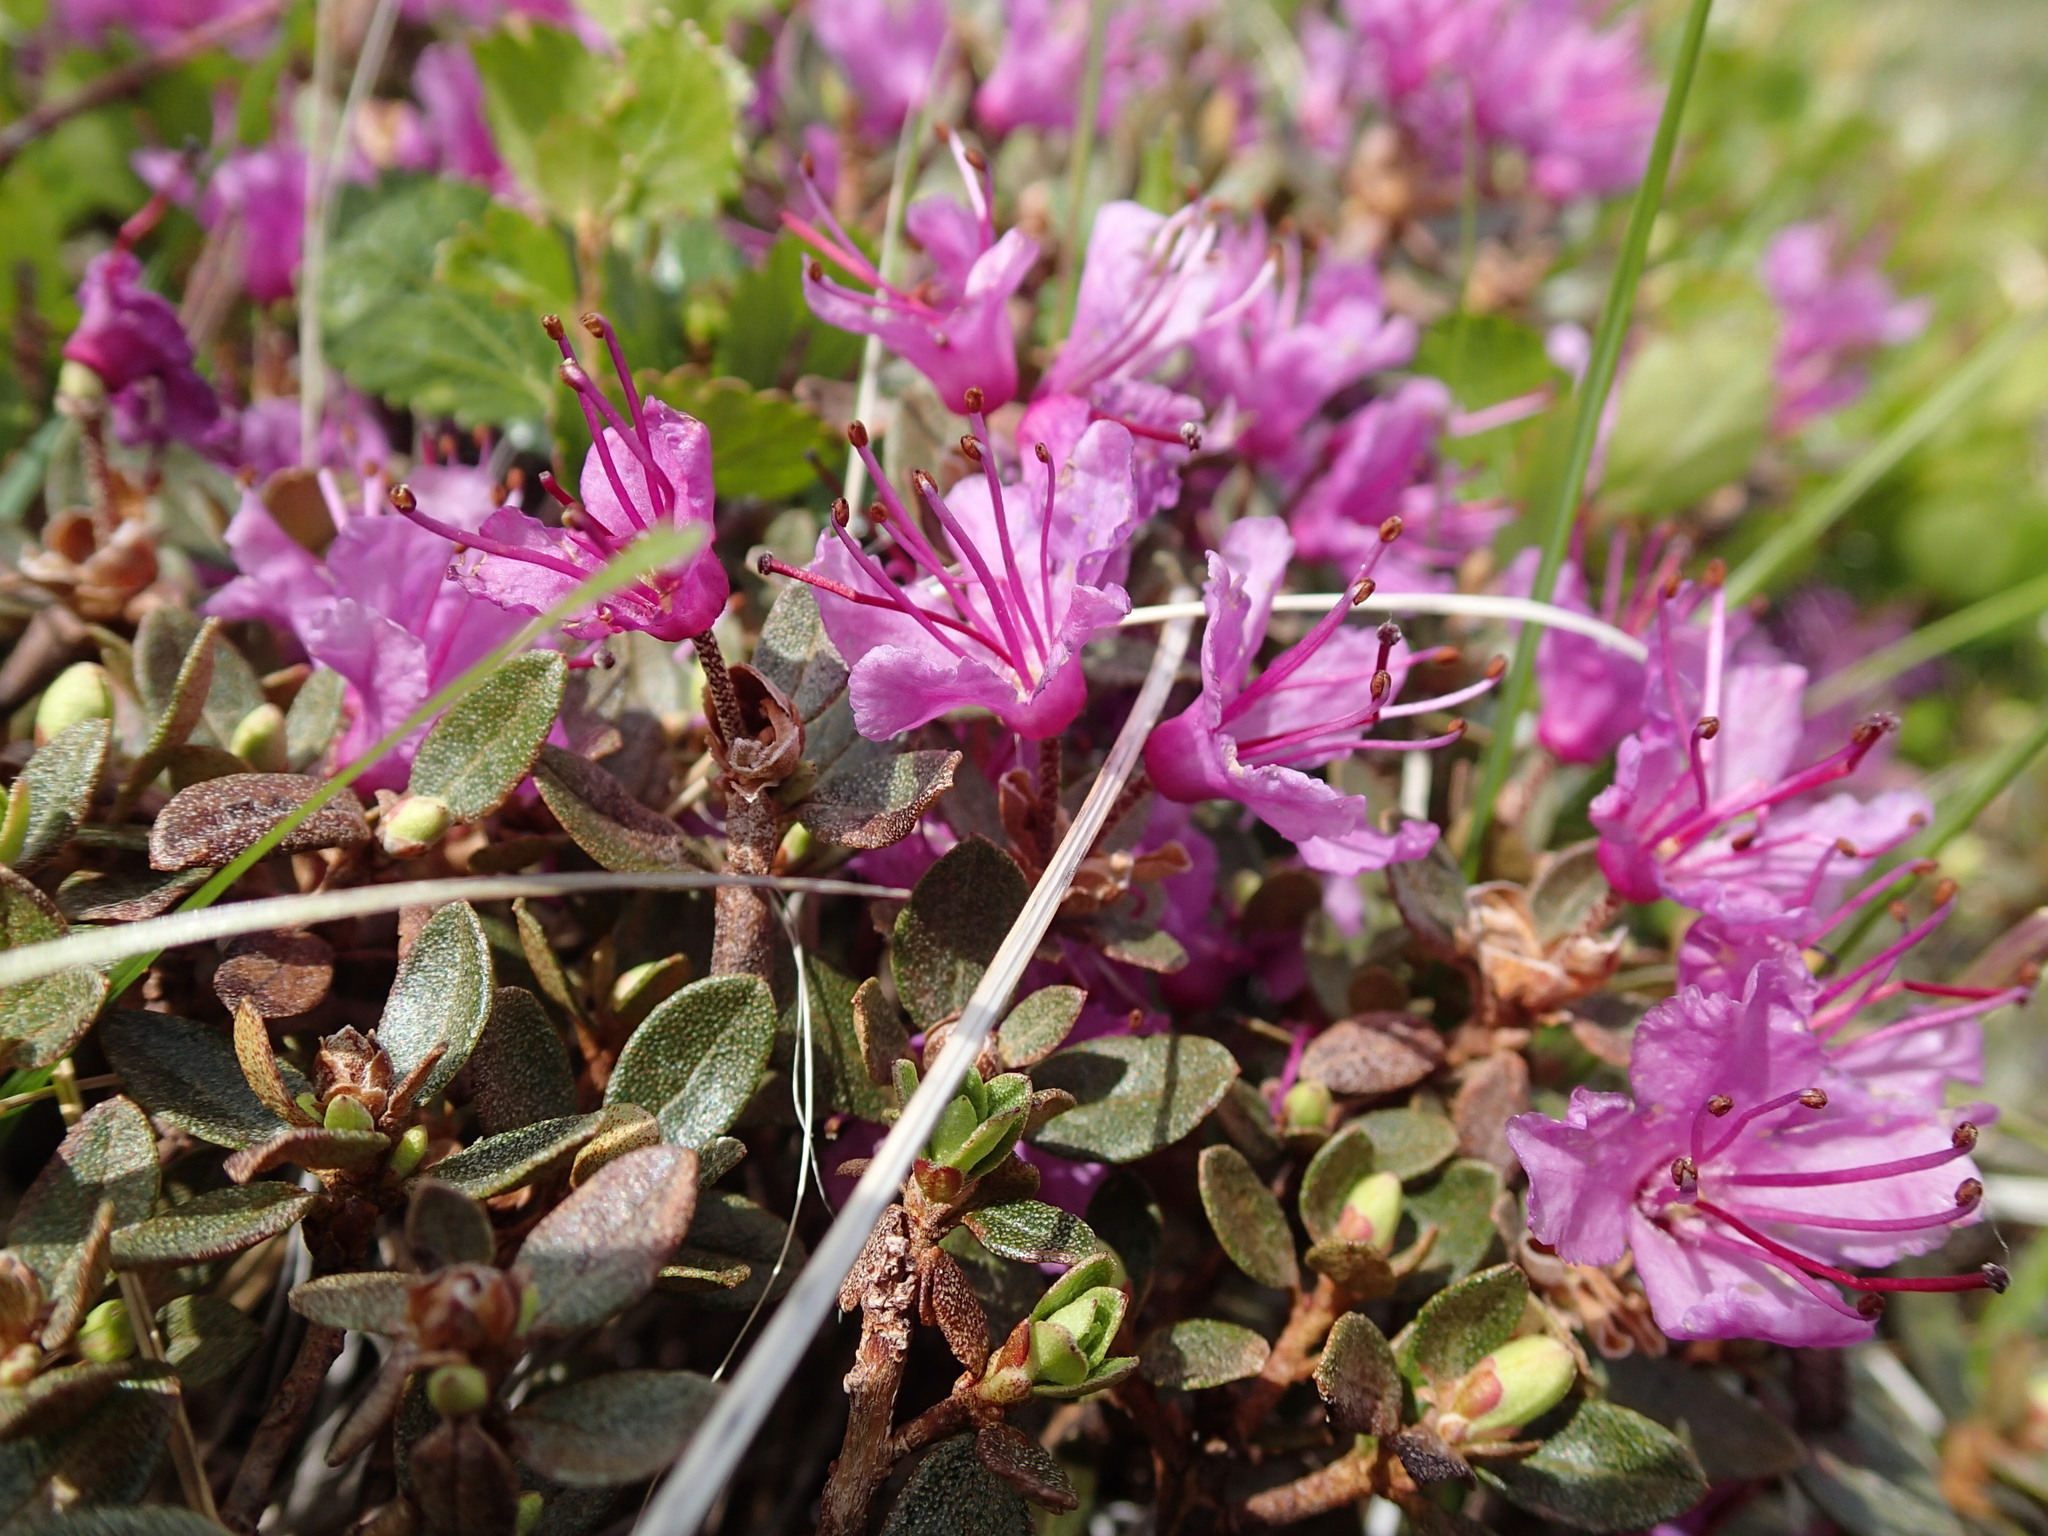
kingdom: Plantae
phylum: Tracheophyta
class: Magnoliopsida
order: Ericales
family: Ericaceae
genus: Rhododendron
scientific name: Rhododendron lapponicum
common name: Lapland rhododendron
